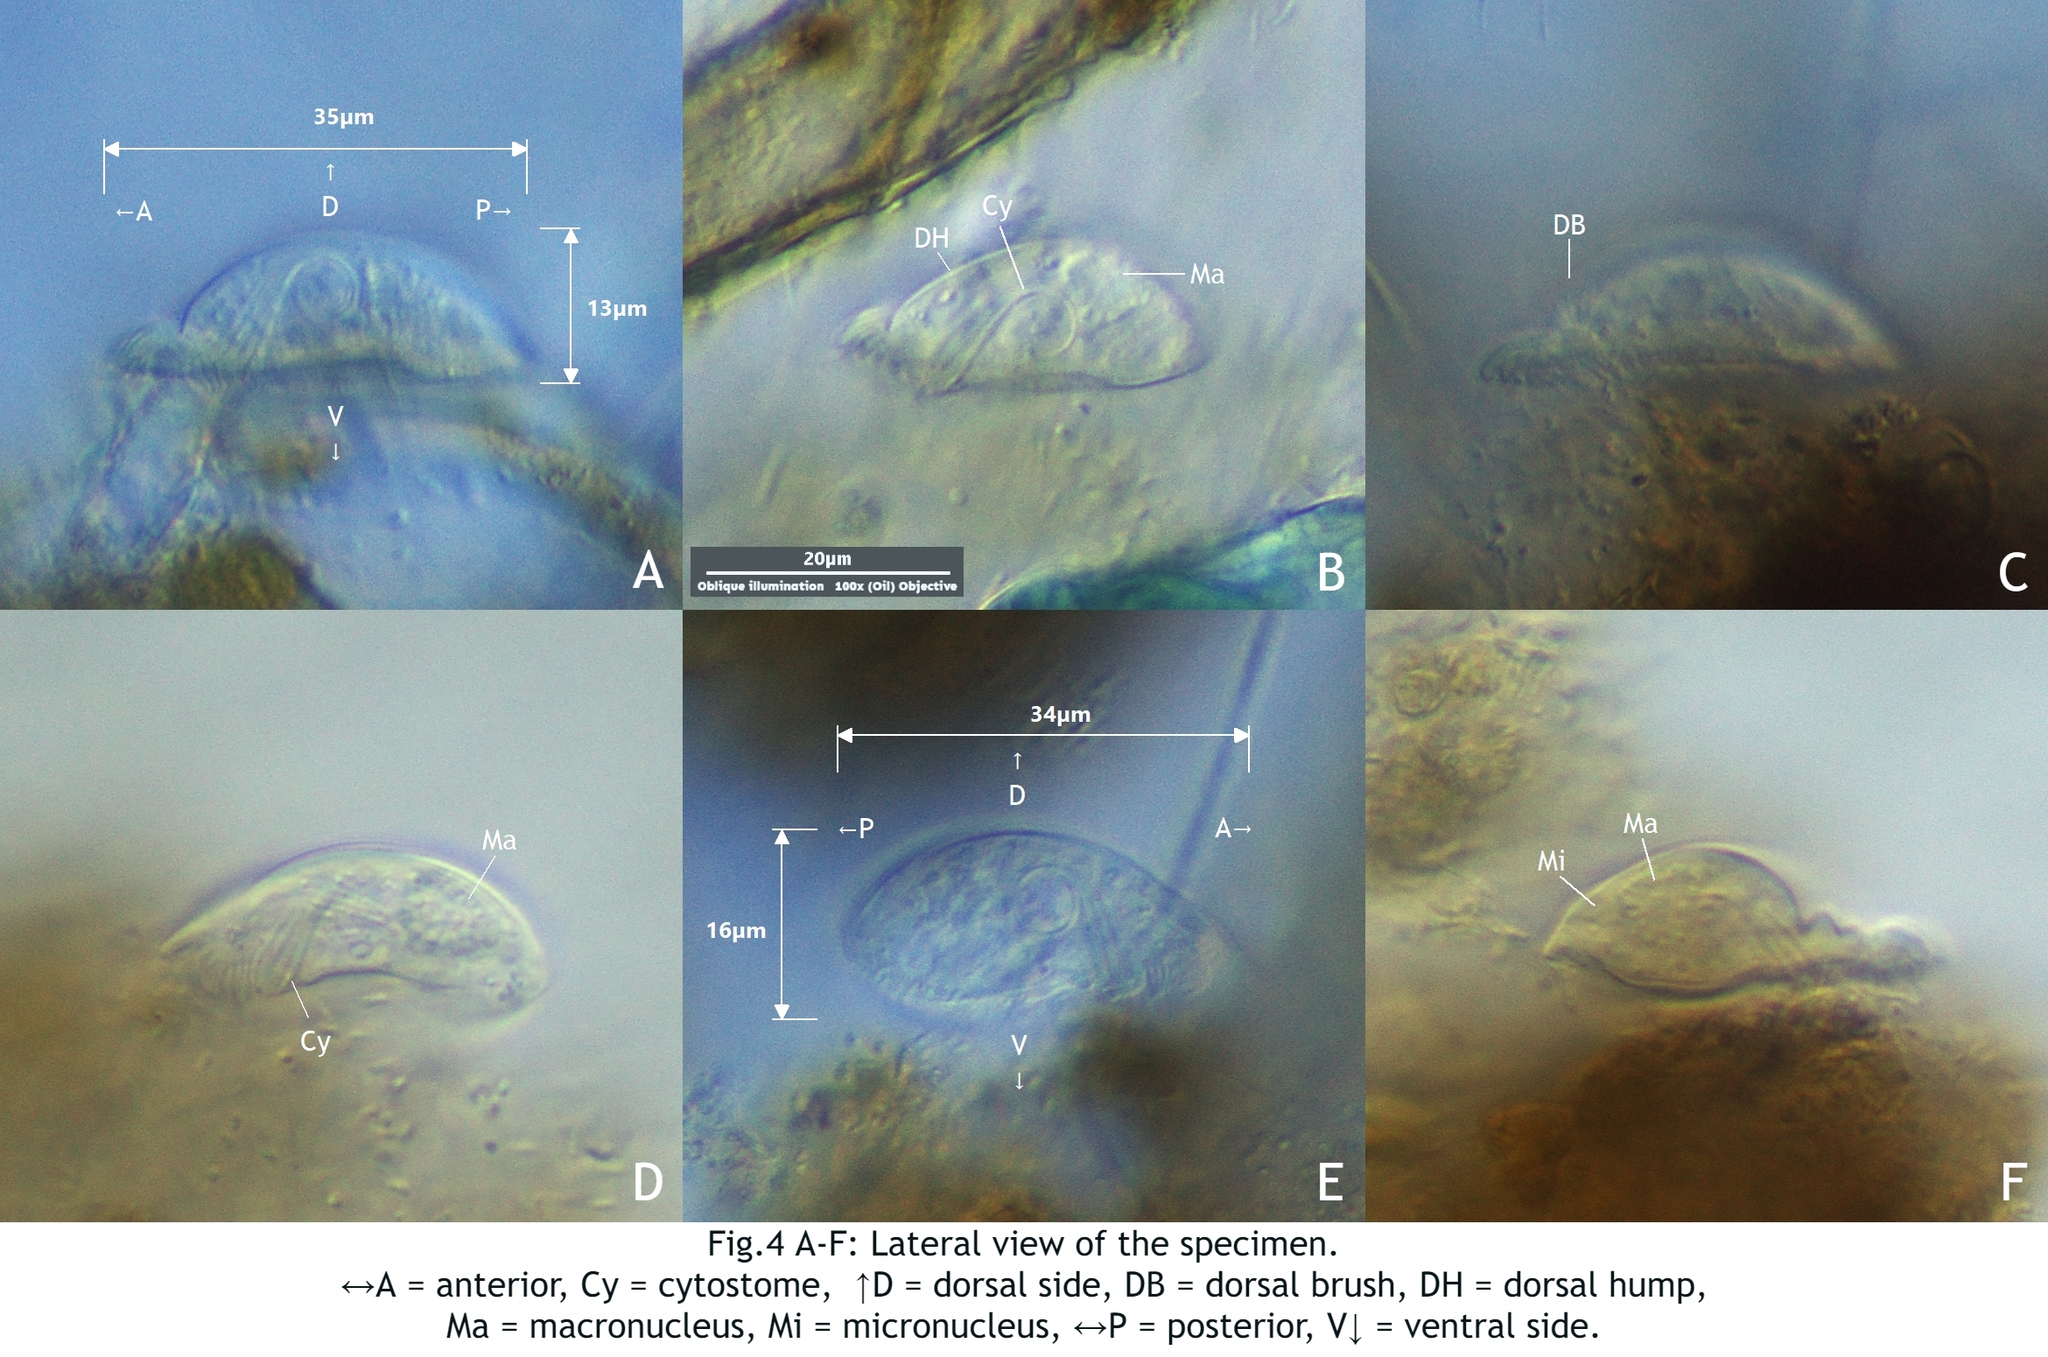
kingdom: Chromista
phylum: Ciliophora
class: Cyrtophoria
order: Cyrtophorida
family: Chilodonellidae
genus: Chilodonella
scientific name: Chilodonella uncinata
